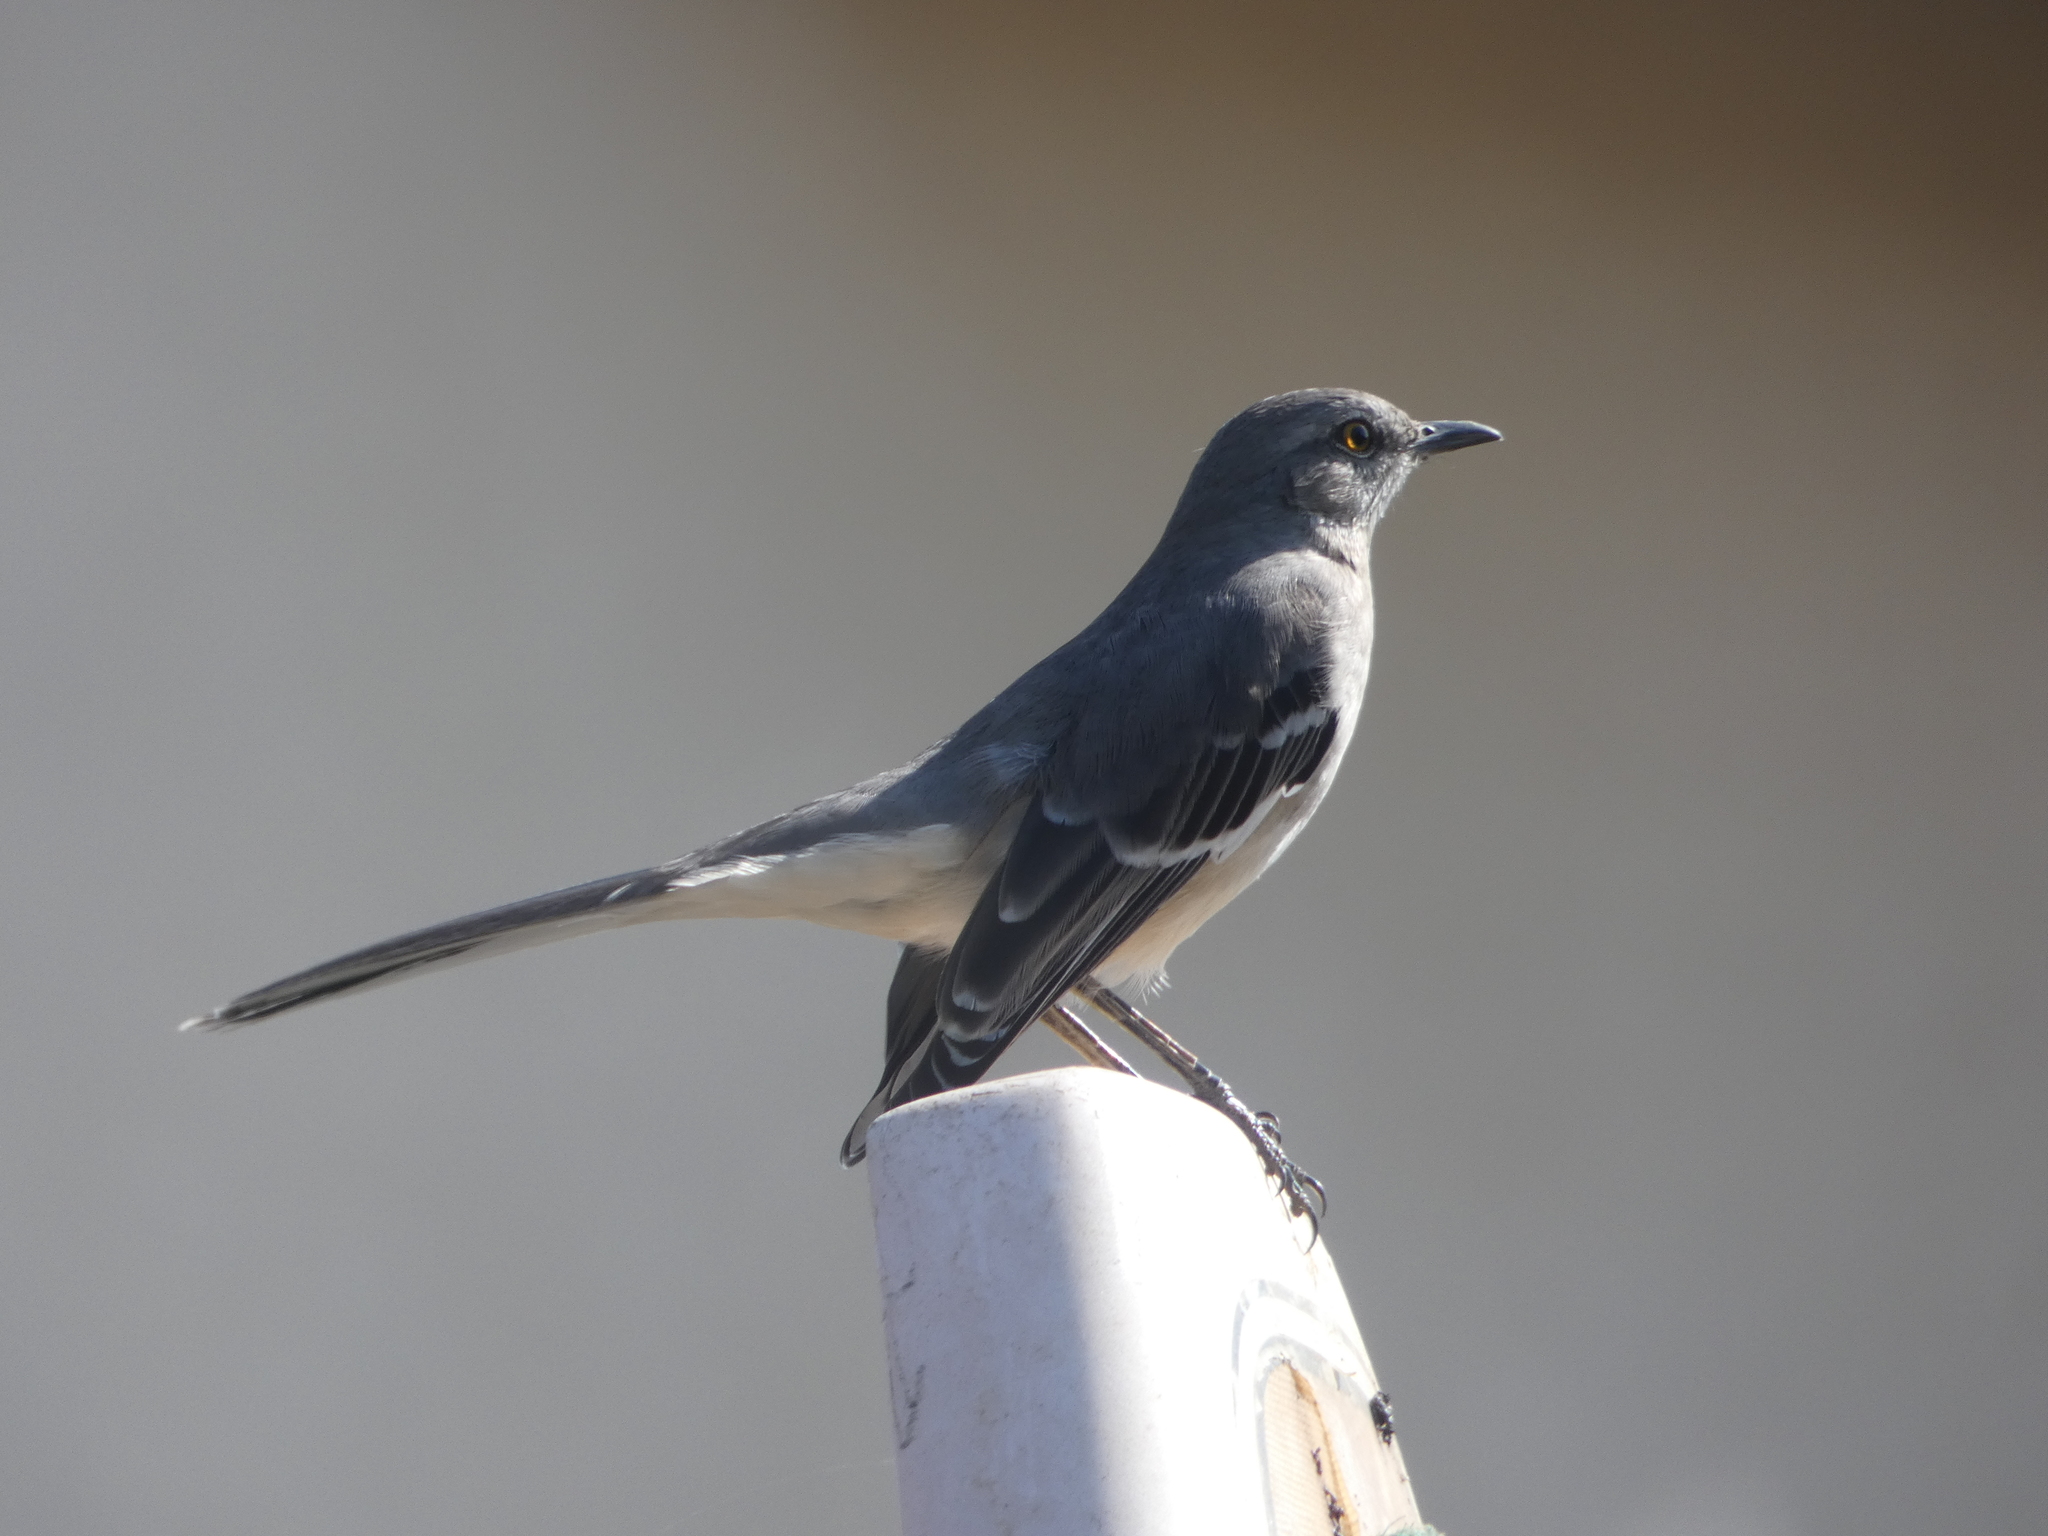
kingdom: Animalia
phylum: Chordata
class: Aves
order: Passeriformes
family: Mimidae
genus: Mimus
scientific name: Mimus polyglottos
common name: Northern mockingbird
